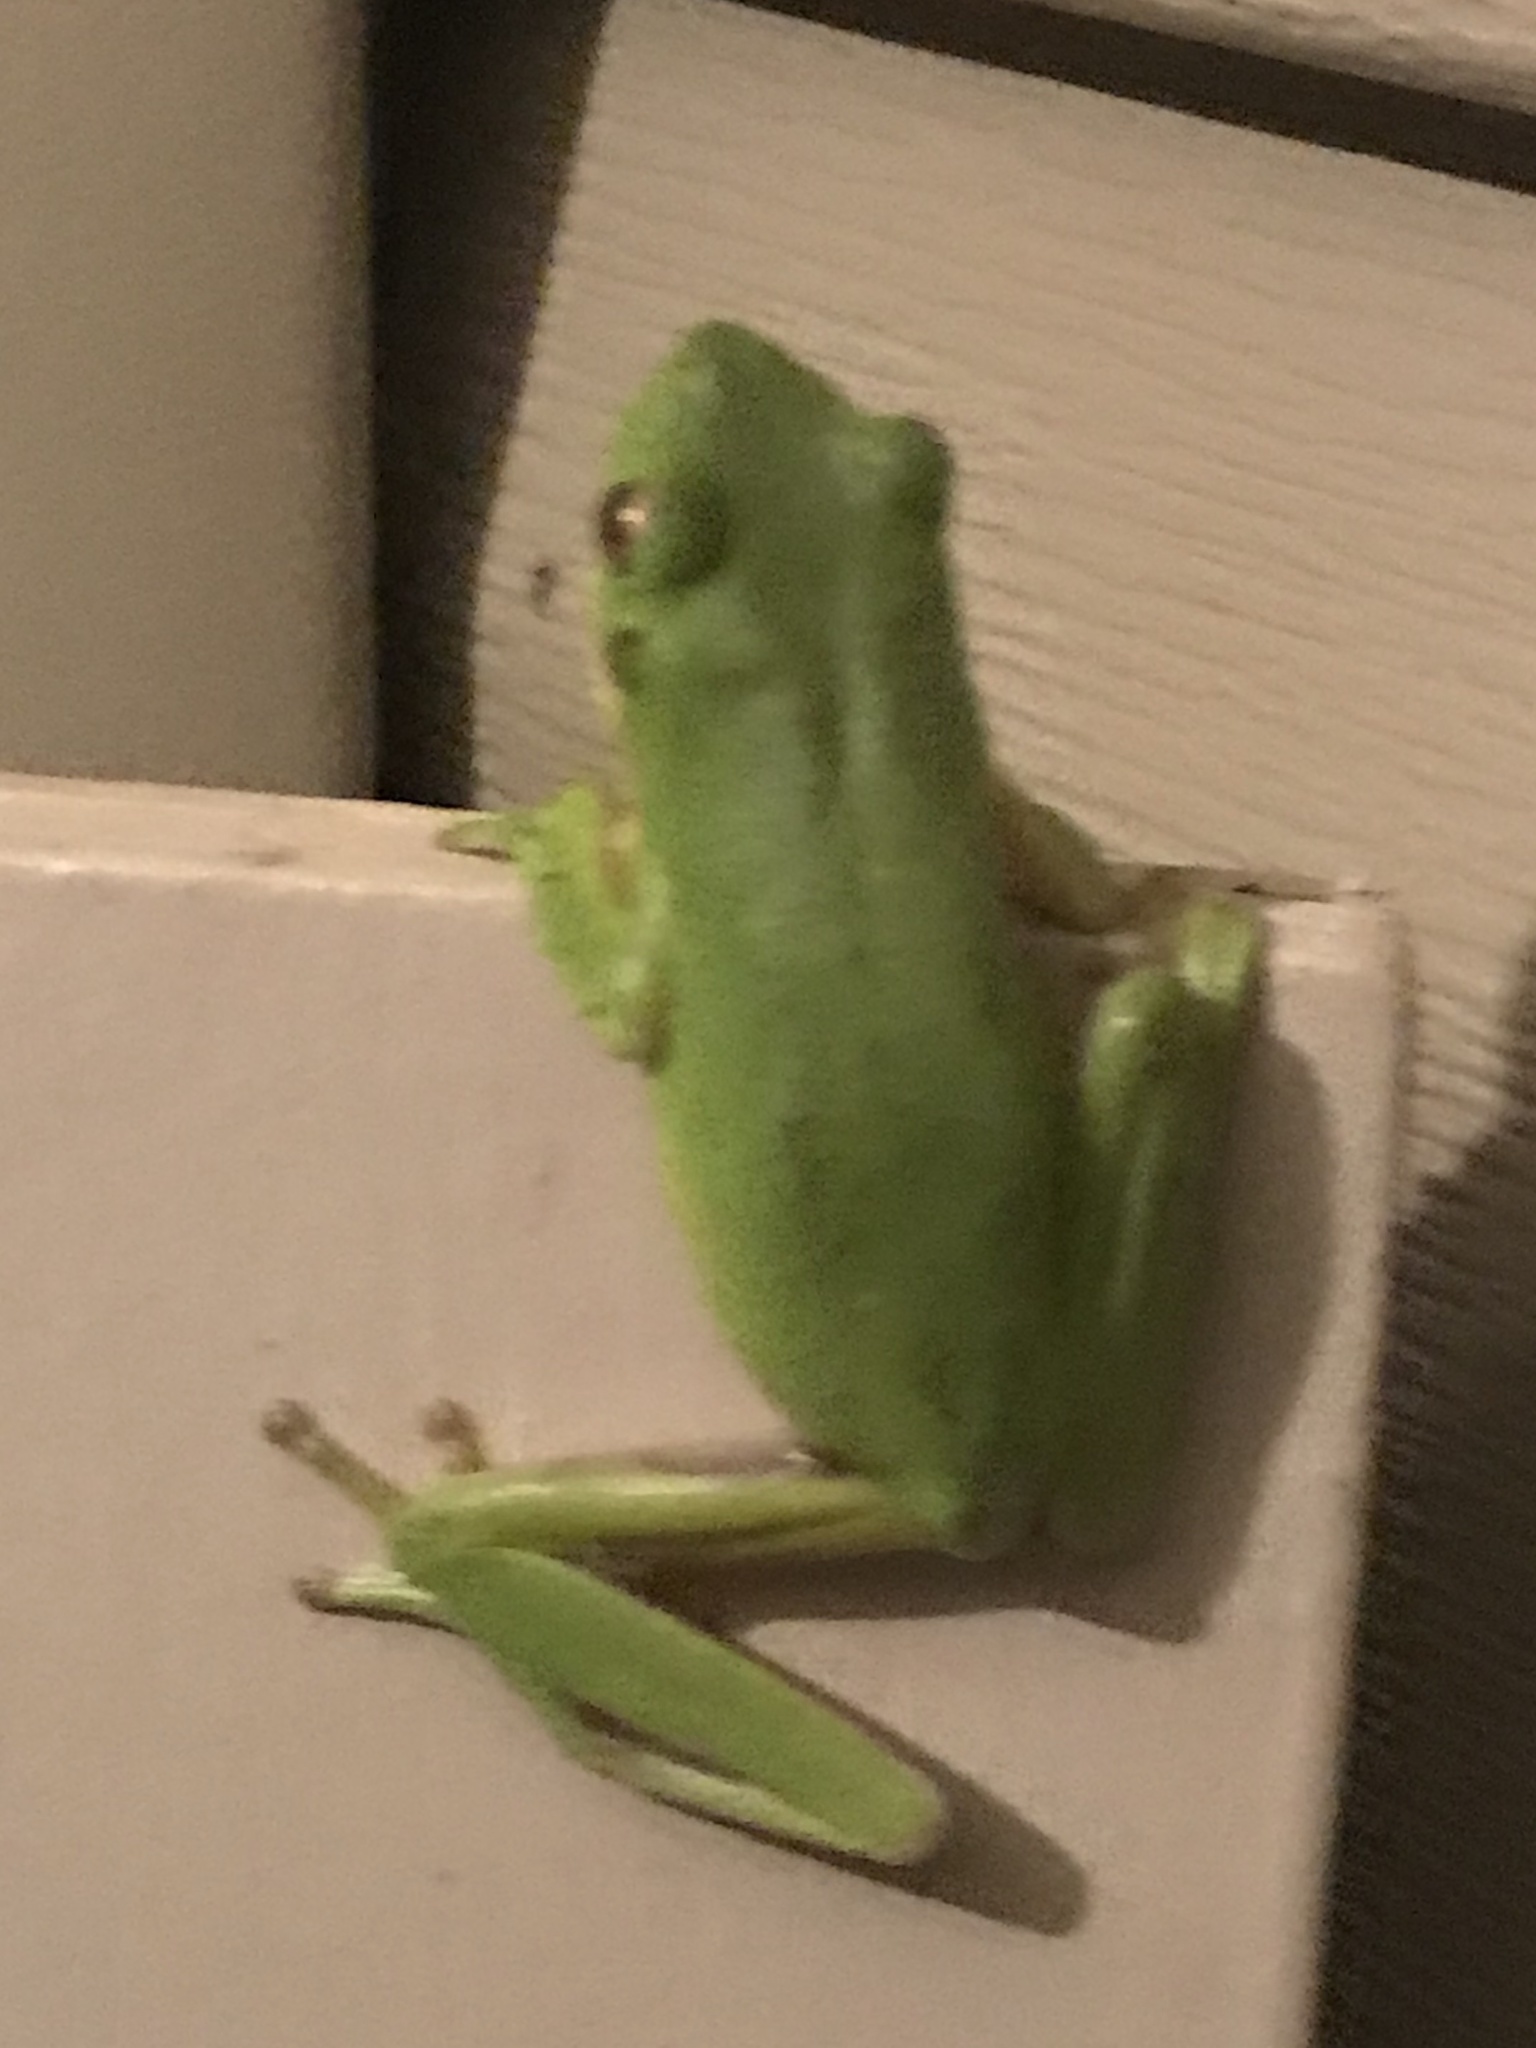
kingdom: Animalia
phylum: Chordata
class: Amphibia
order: Anura
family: Hylidae
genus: Dryophytes
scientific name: Dryophytes cinereus
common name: Green treefrog
